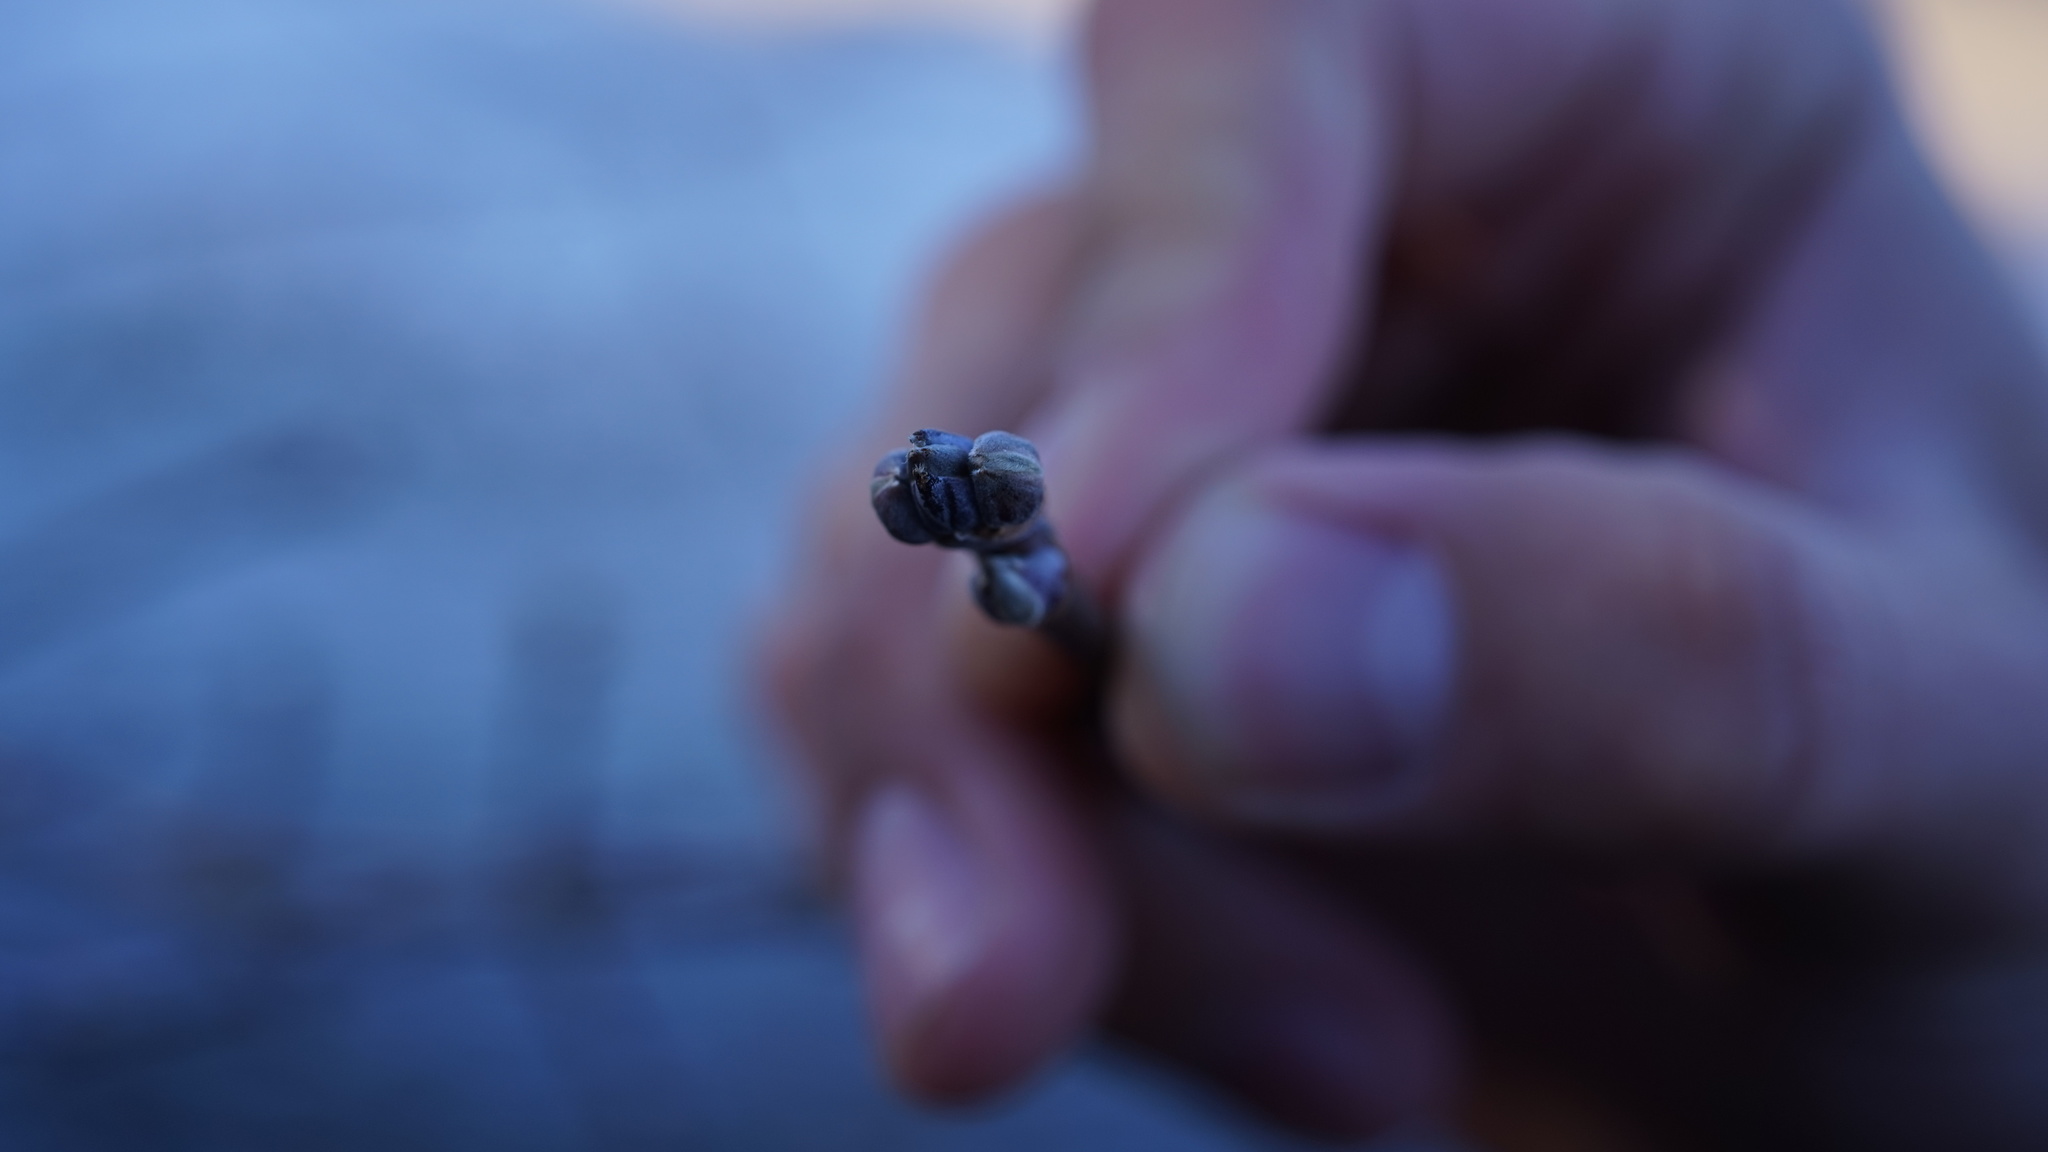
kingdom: Plantae
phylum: Tracheophyta
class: Magnoliopsida
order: Sapindales
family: Sapindaceae
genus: Acer
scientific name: Acer negundo
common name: Ashleaf maple
